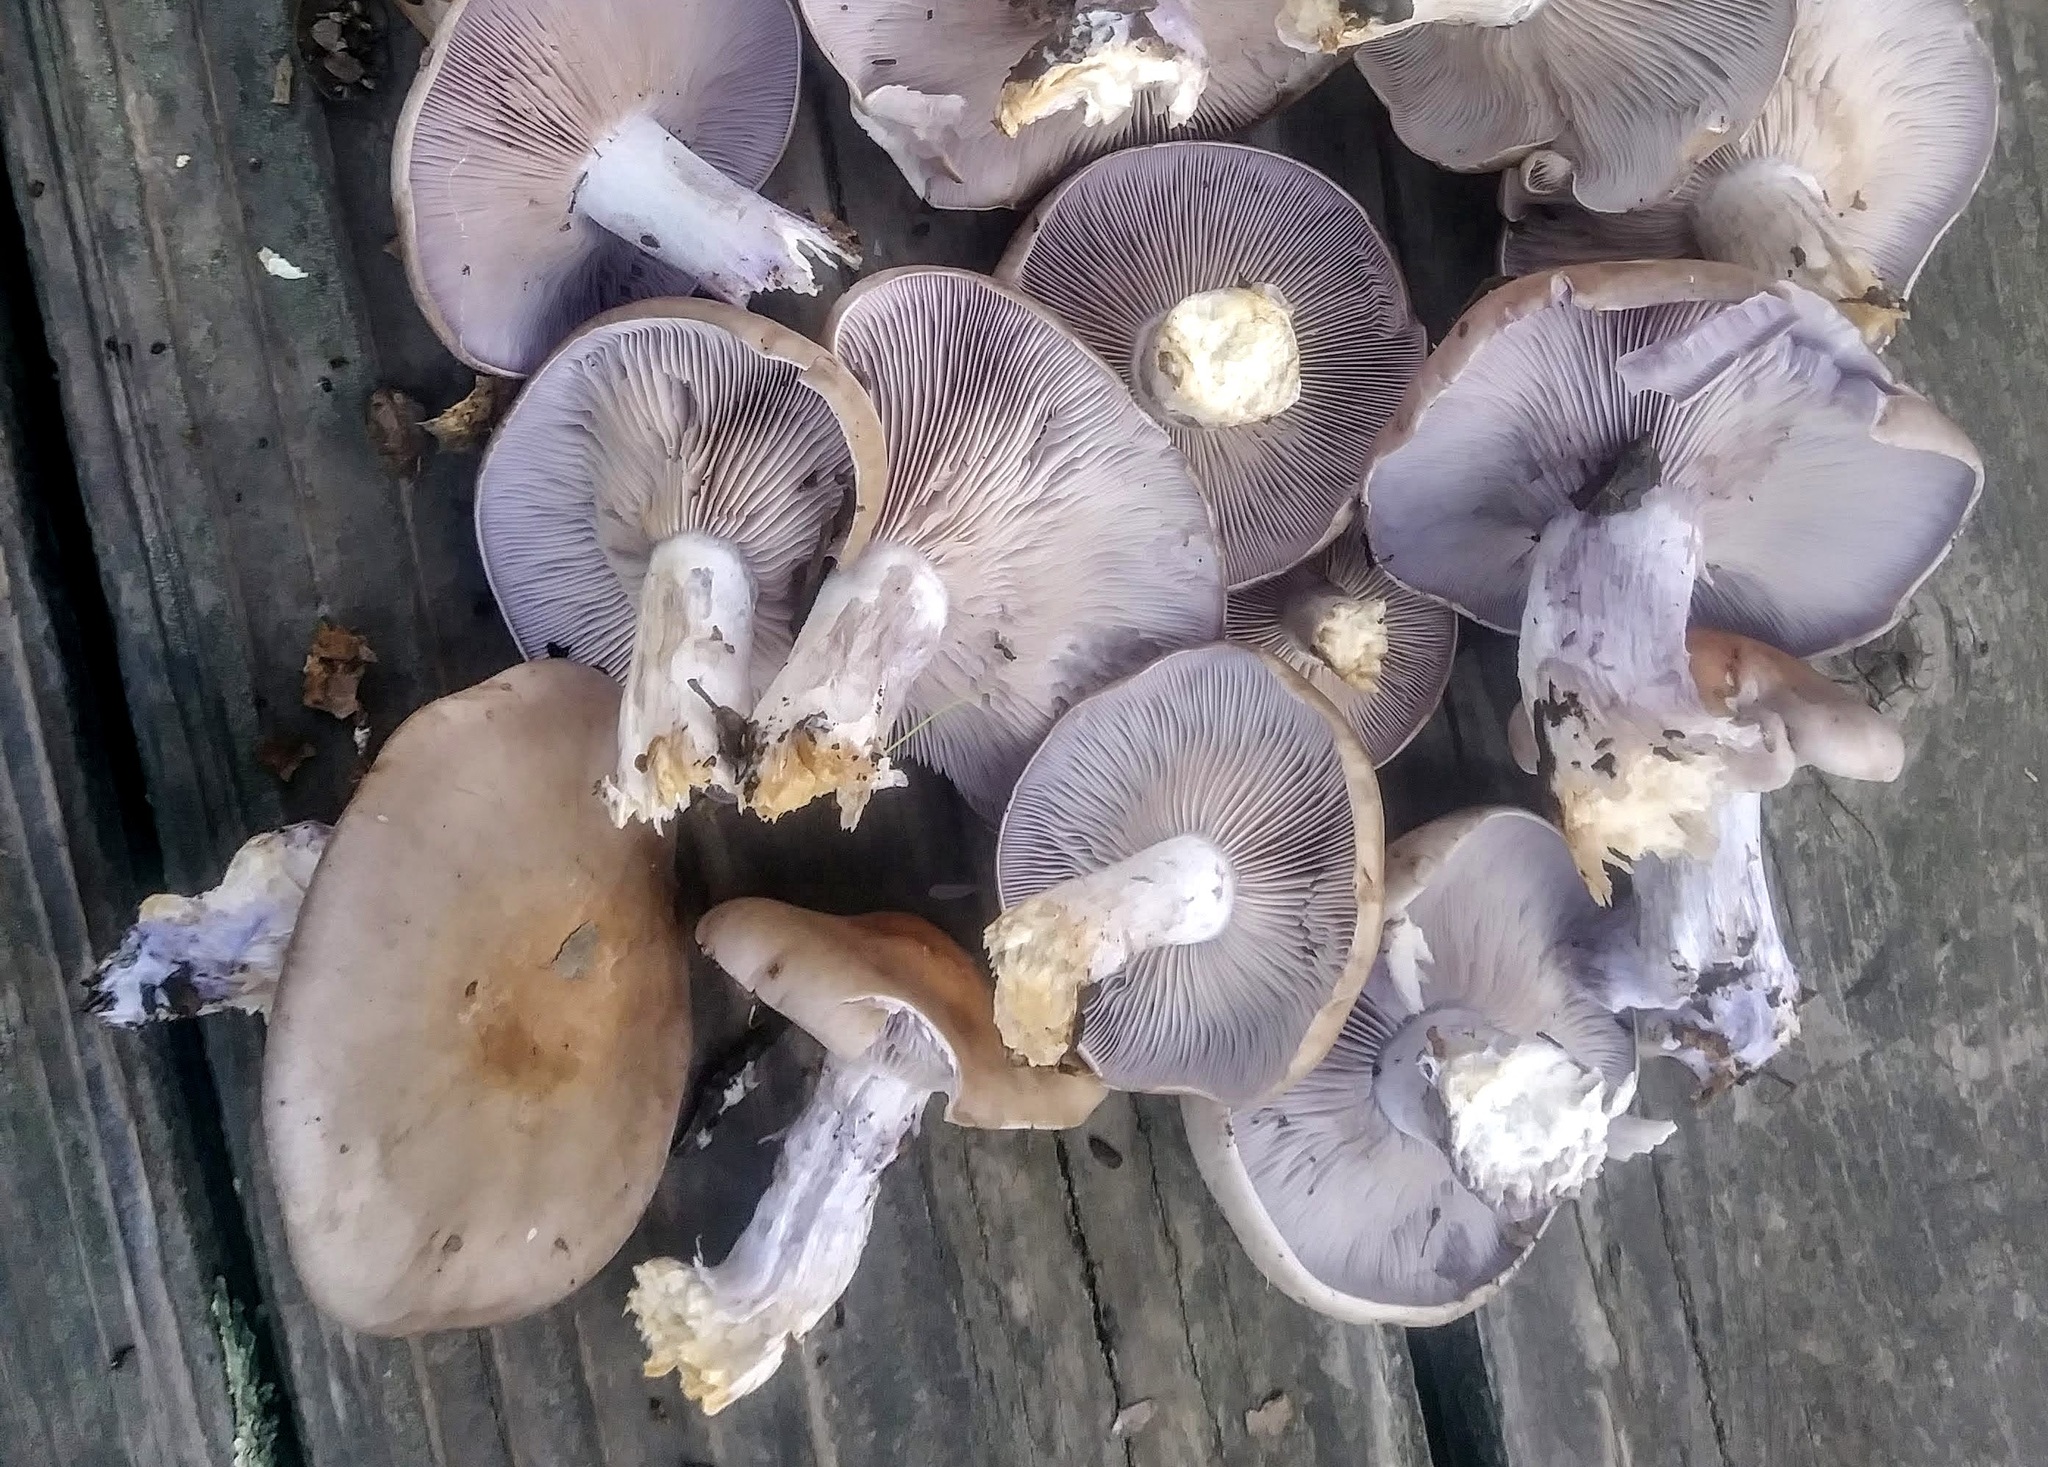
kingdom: Fungi
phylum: Basidiomycota
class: Agaricomycetes
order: Agaricales
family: Tricholomataceae
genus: Collybia
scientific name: Collybia
